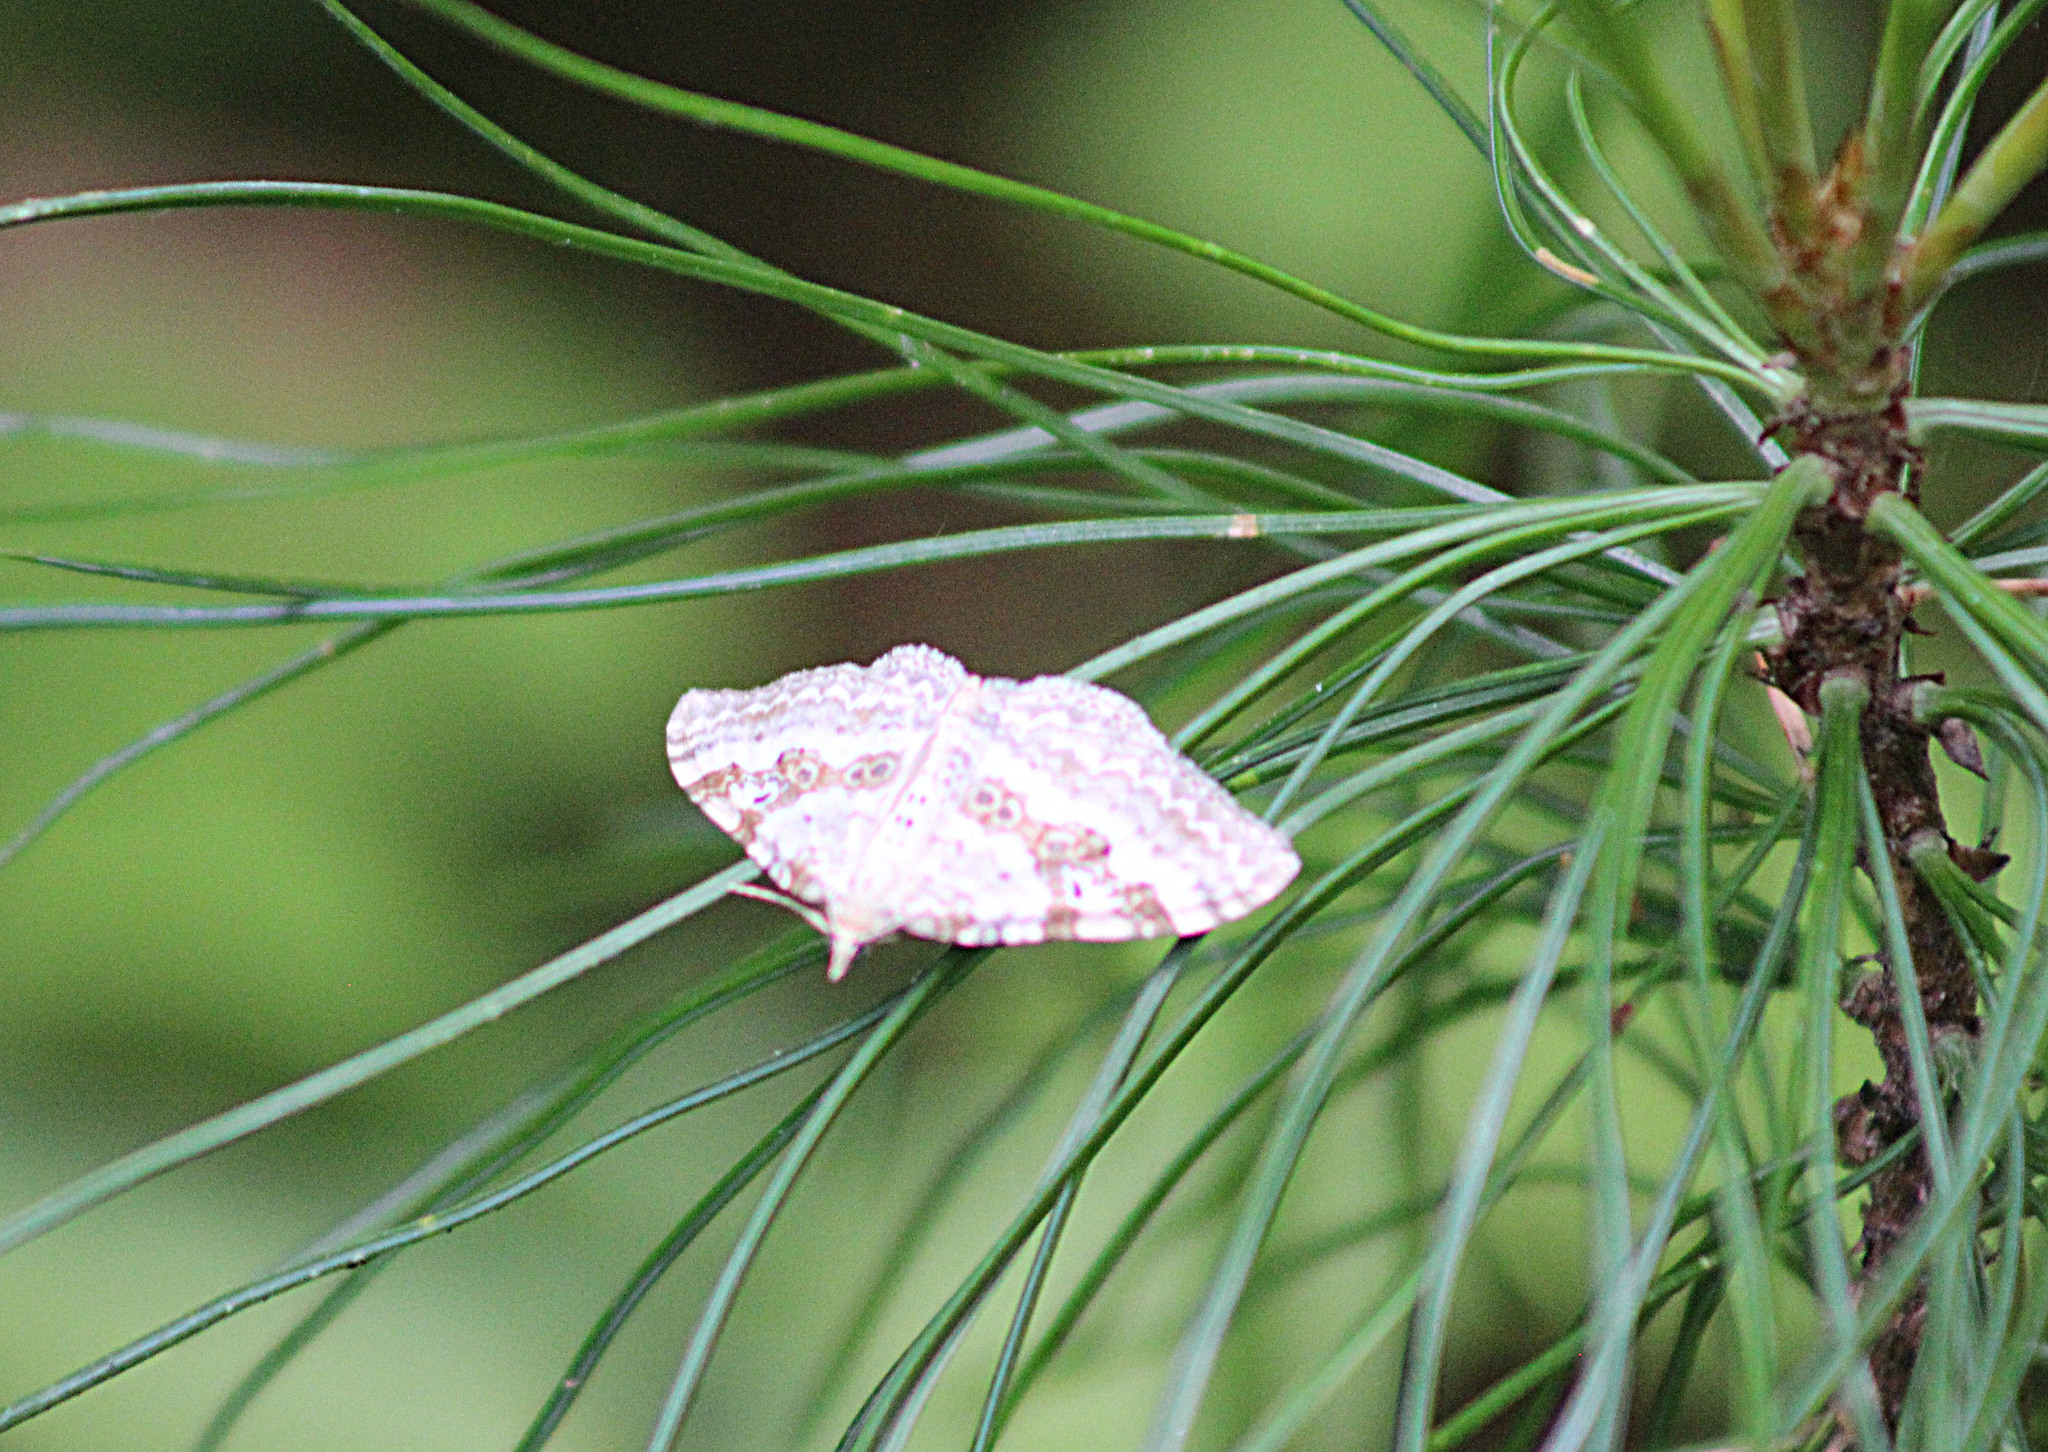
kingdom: Animalia
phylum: Arthropoda
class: Insecta
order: Lepidoptera
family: Geometridae
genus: Xanthorhoe
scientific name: Xanthorhoe montanata
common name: Silver-ground carpet
